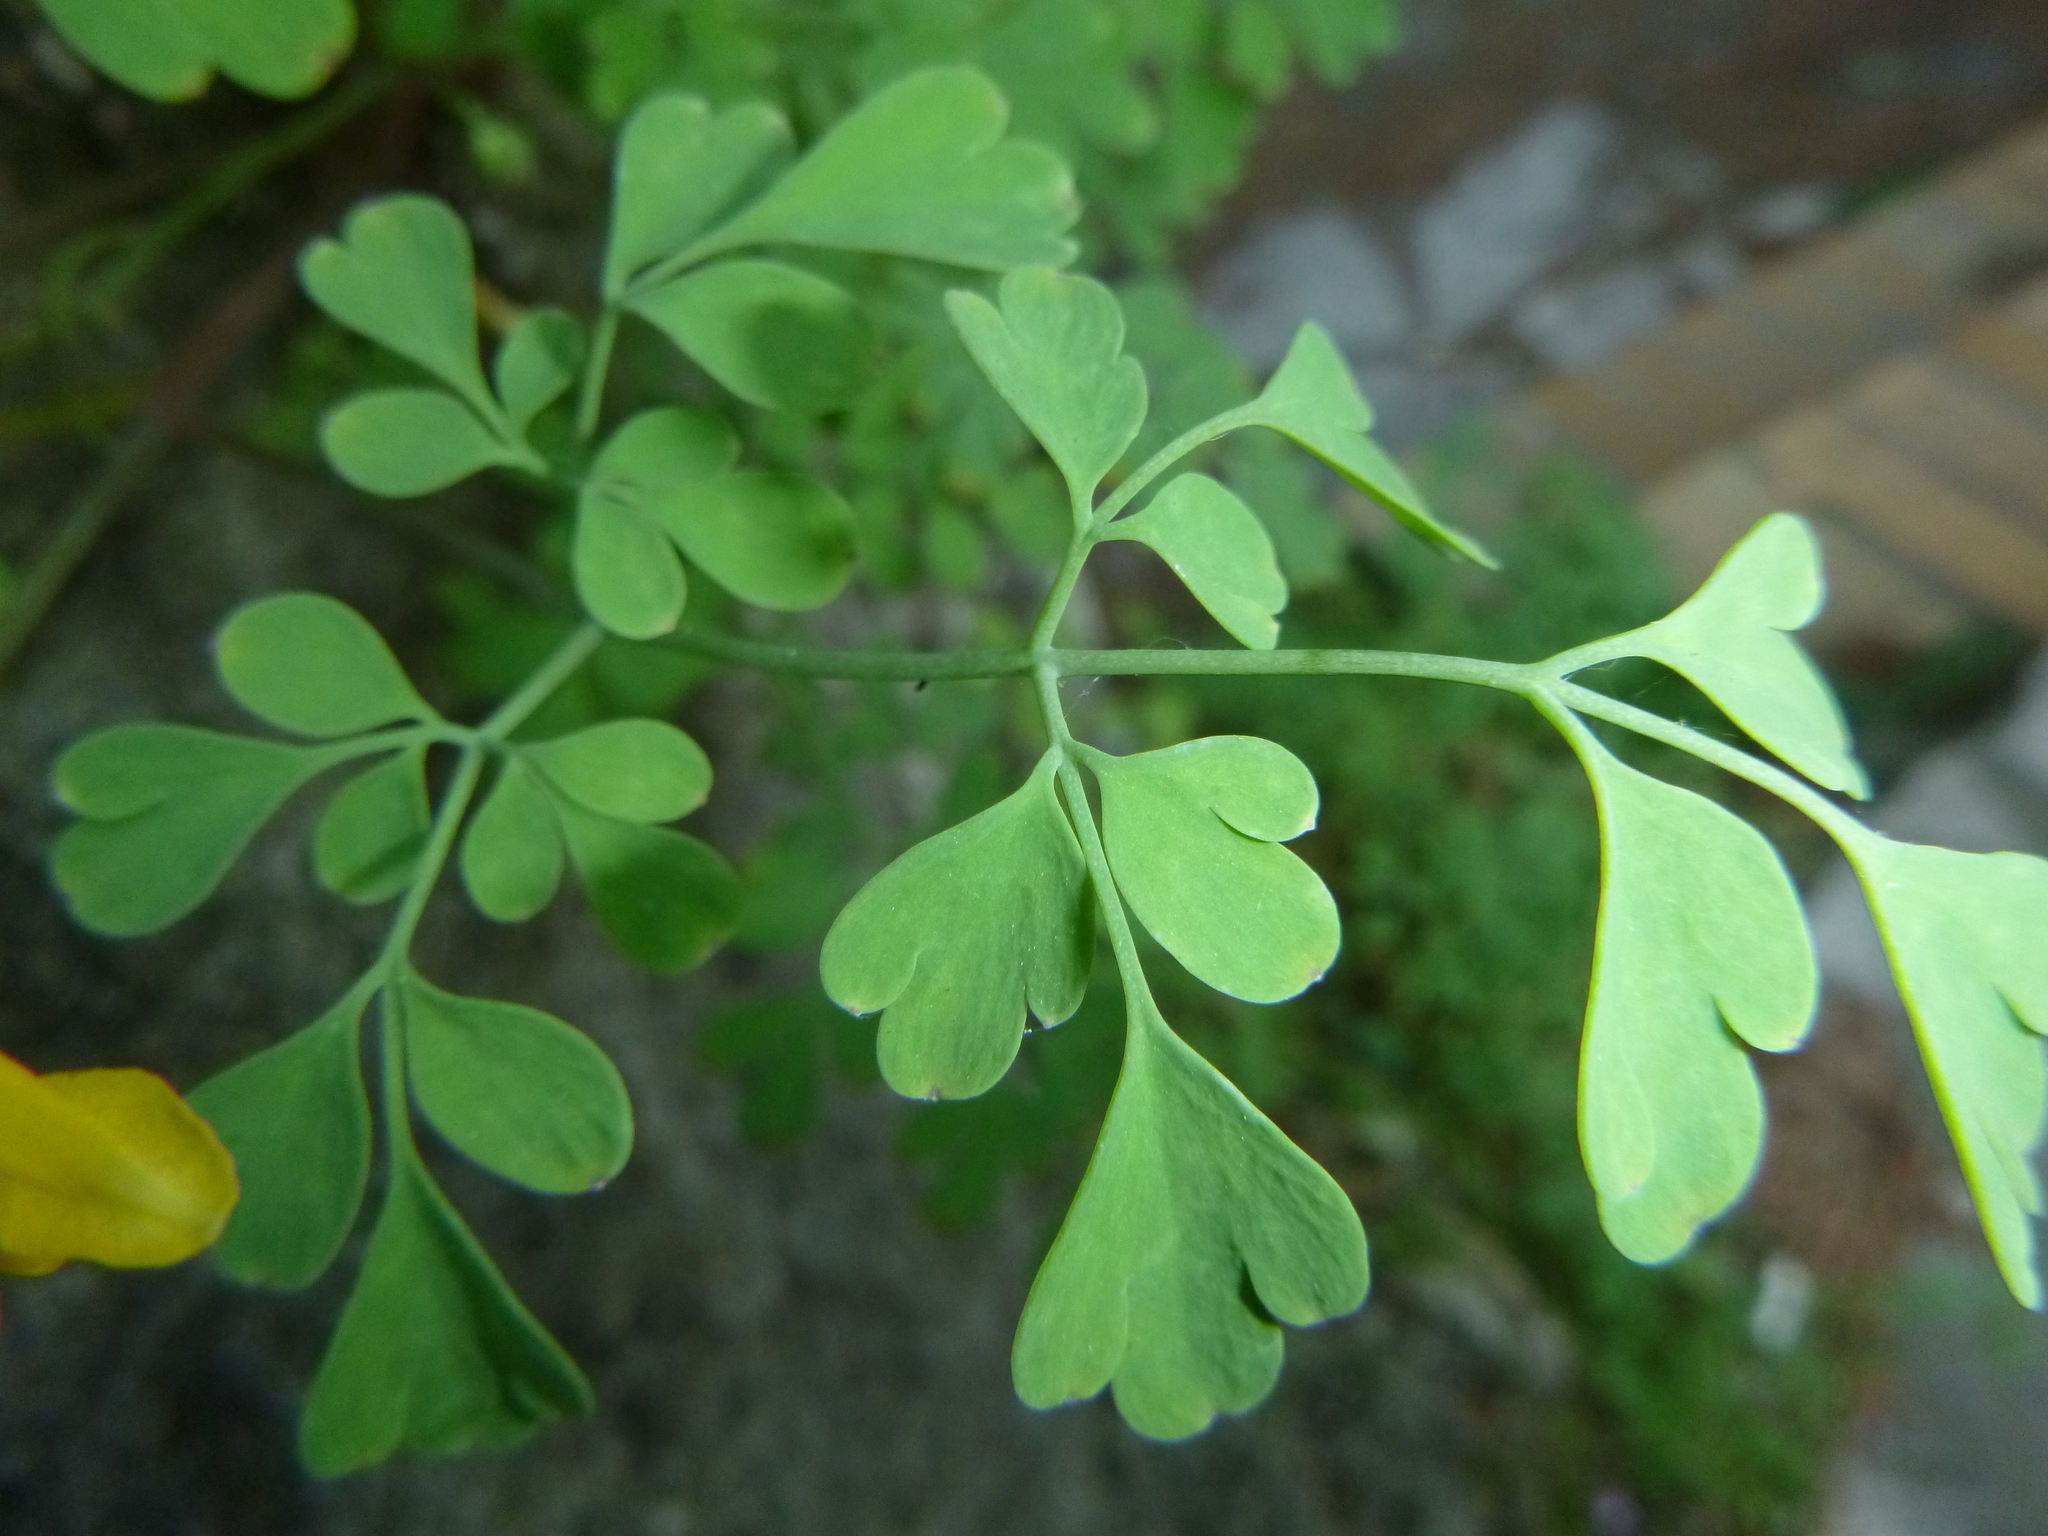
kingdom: Plantae
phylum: Tracheophyta
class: Magnoliopsida
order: Ranunculales
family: Papaveraceae
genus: Pseudofumaria
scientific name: Pseudofumaria lutea
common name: Yellow corydalis
